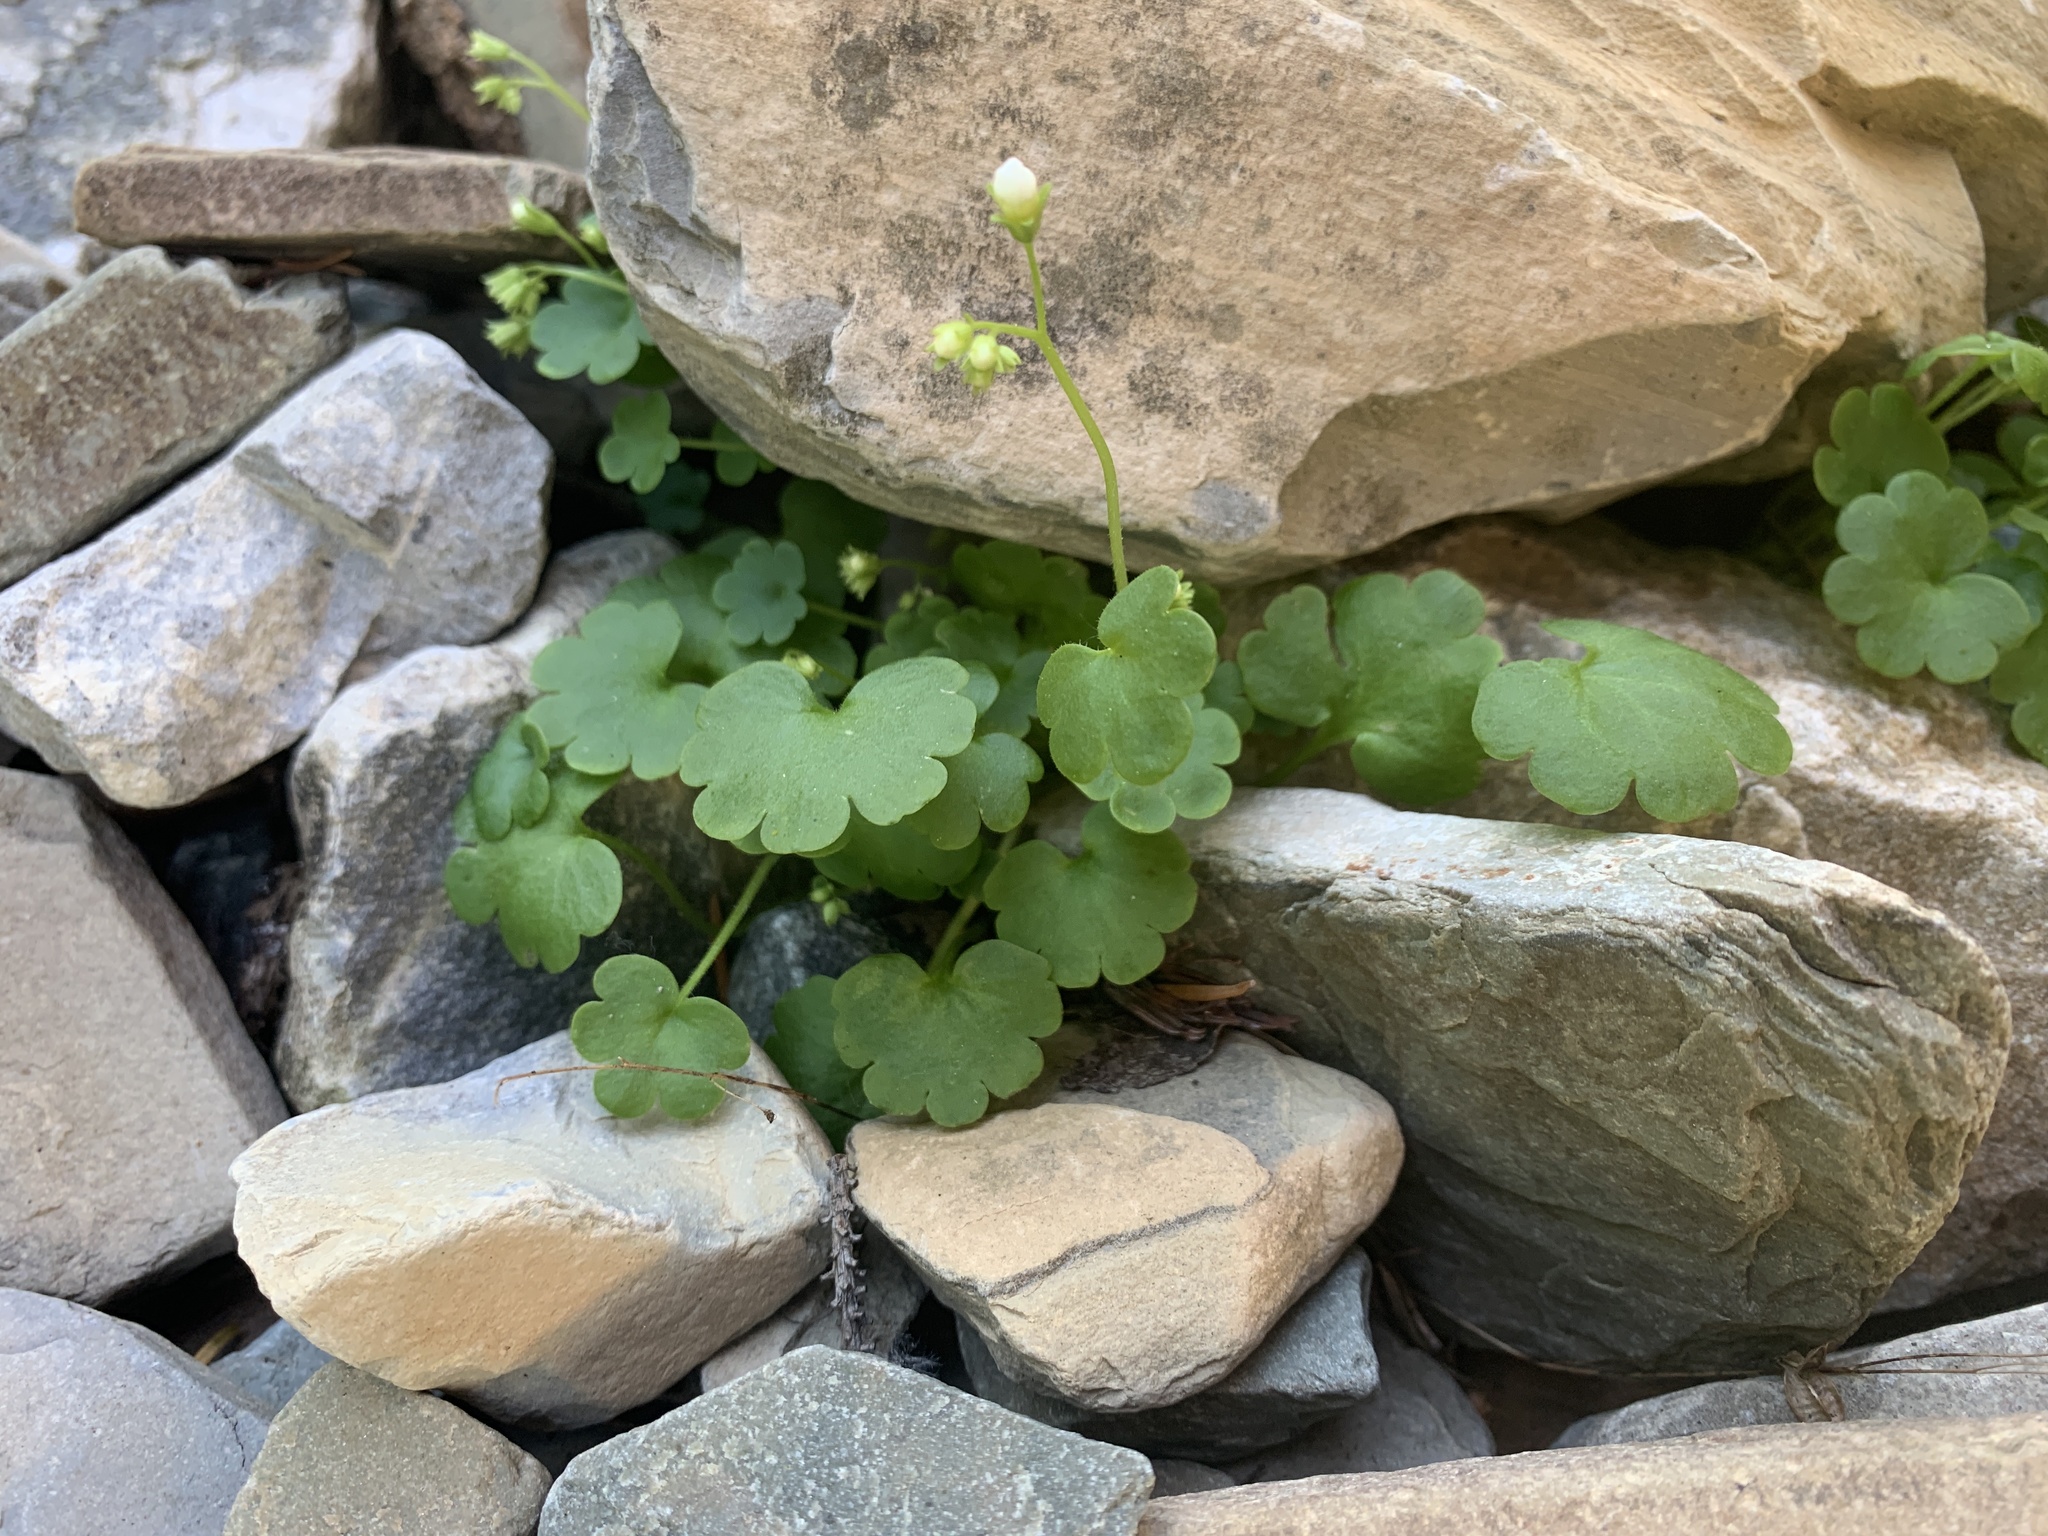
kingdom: Plantae
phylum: Tracheophyta
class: Magnoliopsida
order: Boraginales
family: Hydrophyllaceae
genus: Romanzoffia
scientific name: Romanzoffia sitchensis
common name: Sitka mistmaid
